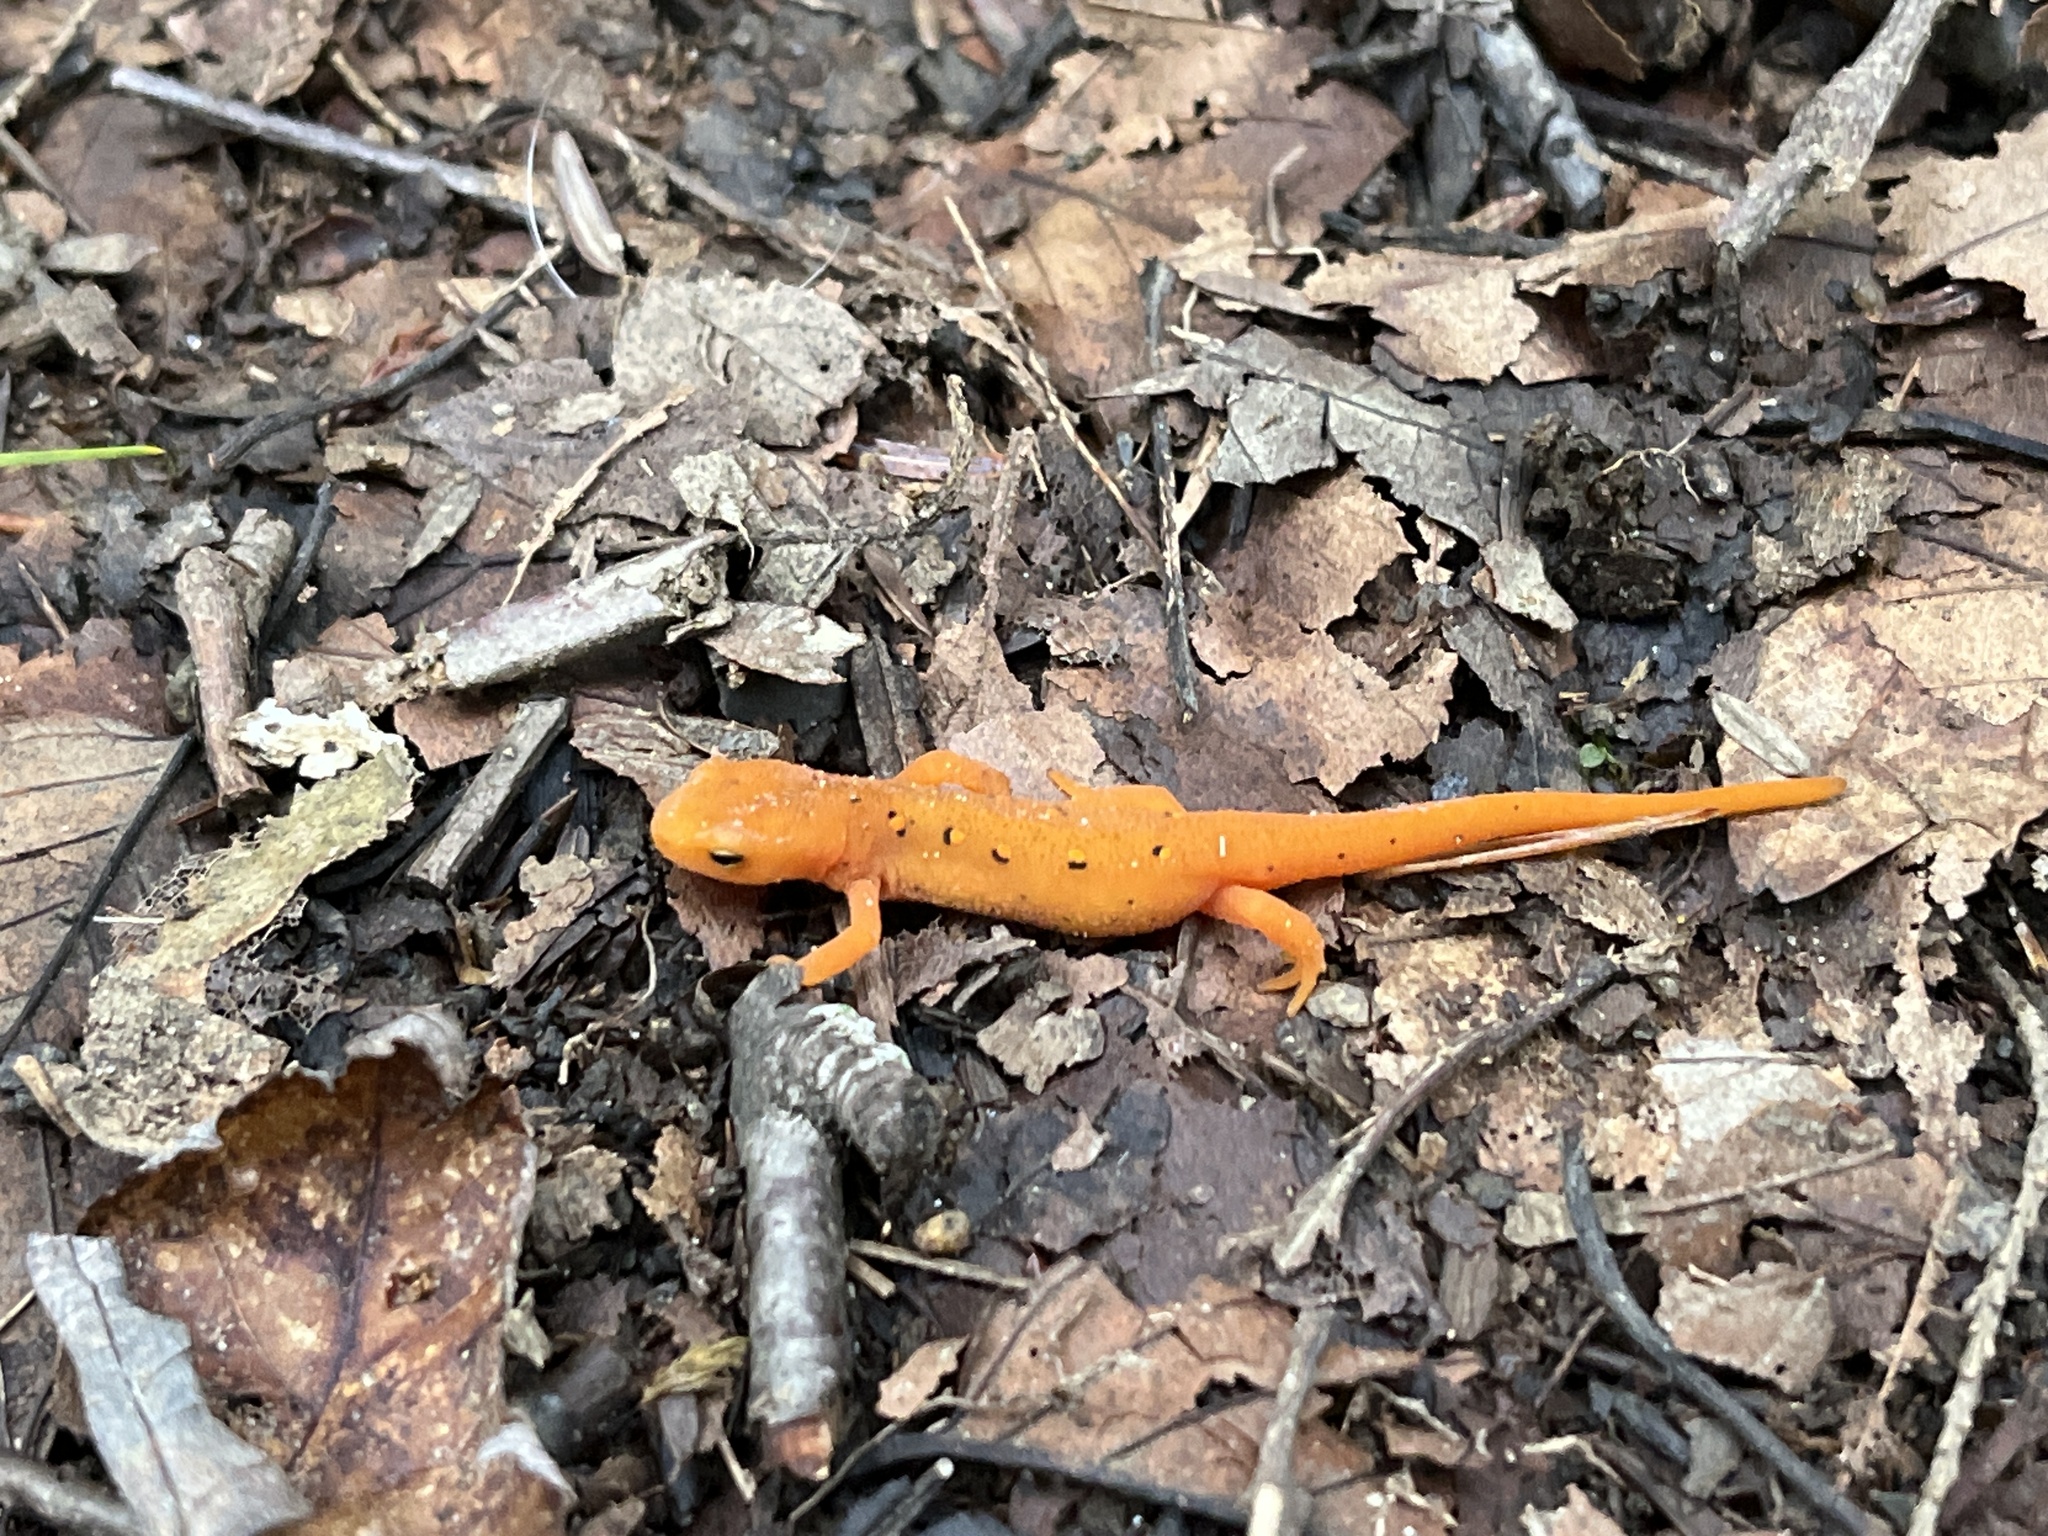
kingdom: Animalia
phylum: Chordata
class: Amphibia
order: Caudata
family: Salamandridae
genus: Notophthalmus
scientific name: Notophthalmus viridescens
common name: Eastern newt
